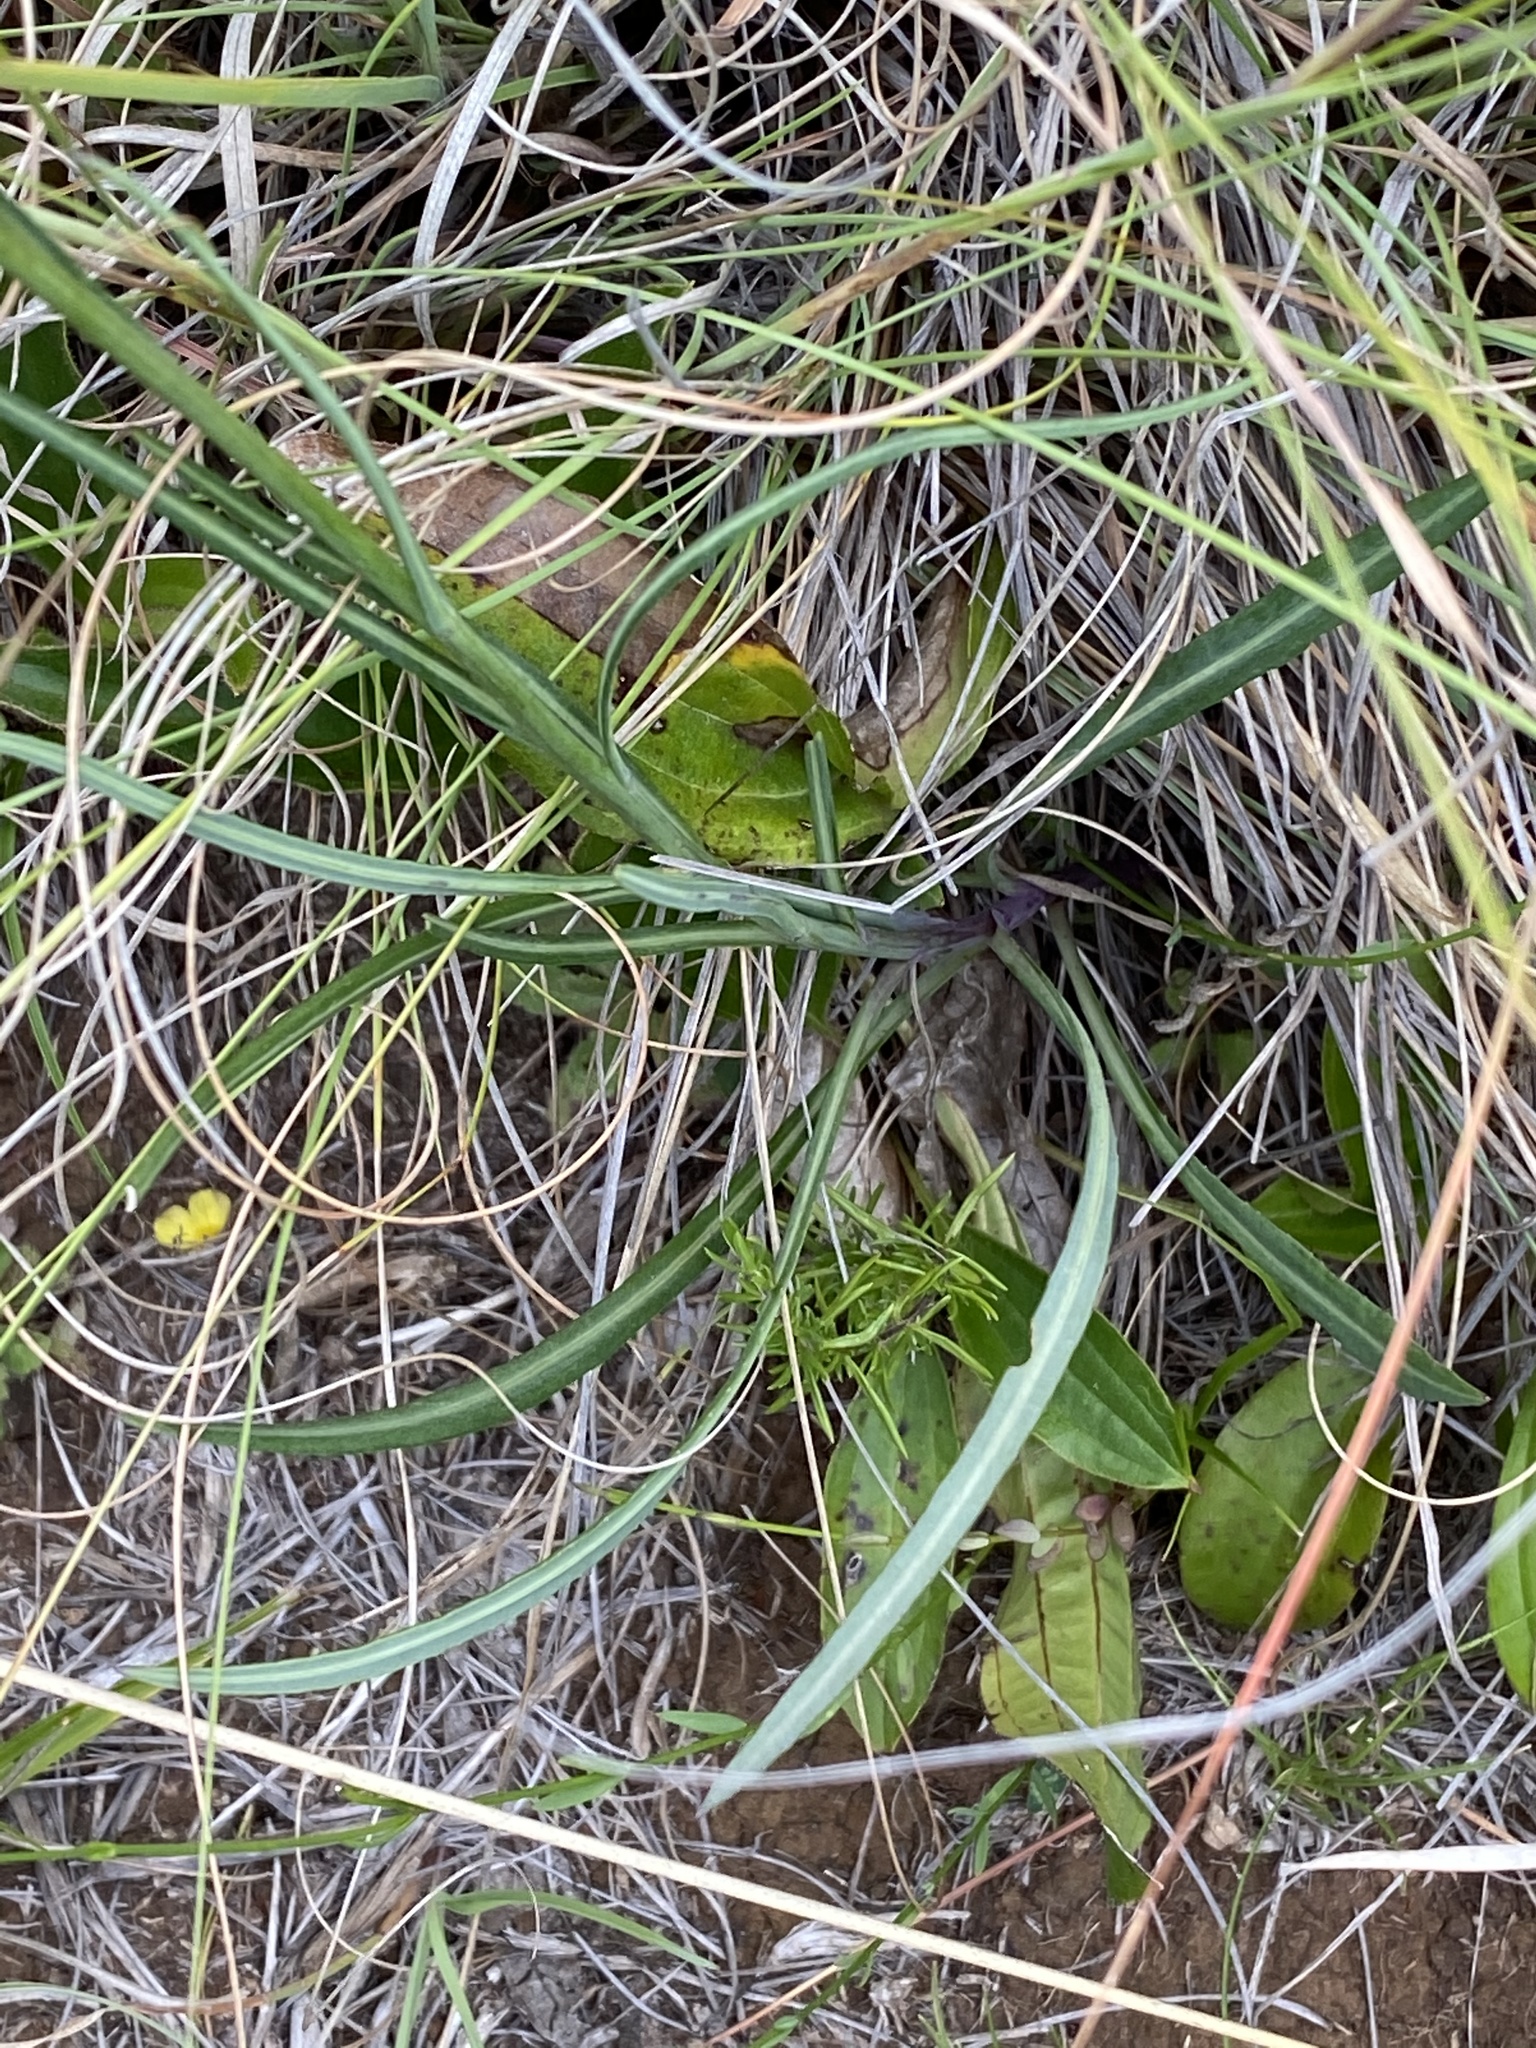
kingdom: Plantae
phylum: Tracheophyta
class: Magnoliopsida
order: Asterales
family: Asteraceae
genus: Senecio
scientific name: Senecio othonniflorus
